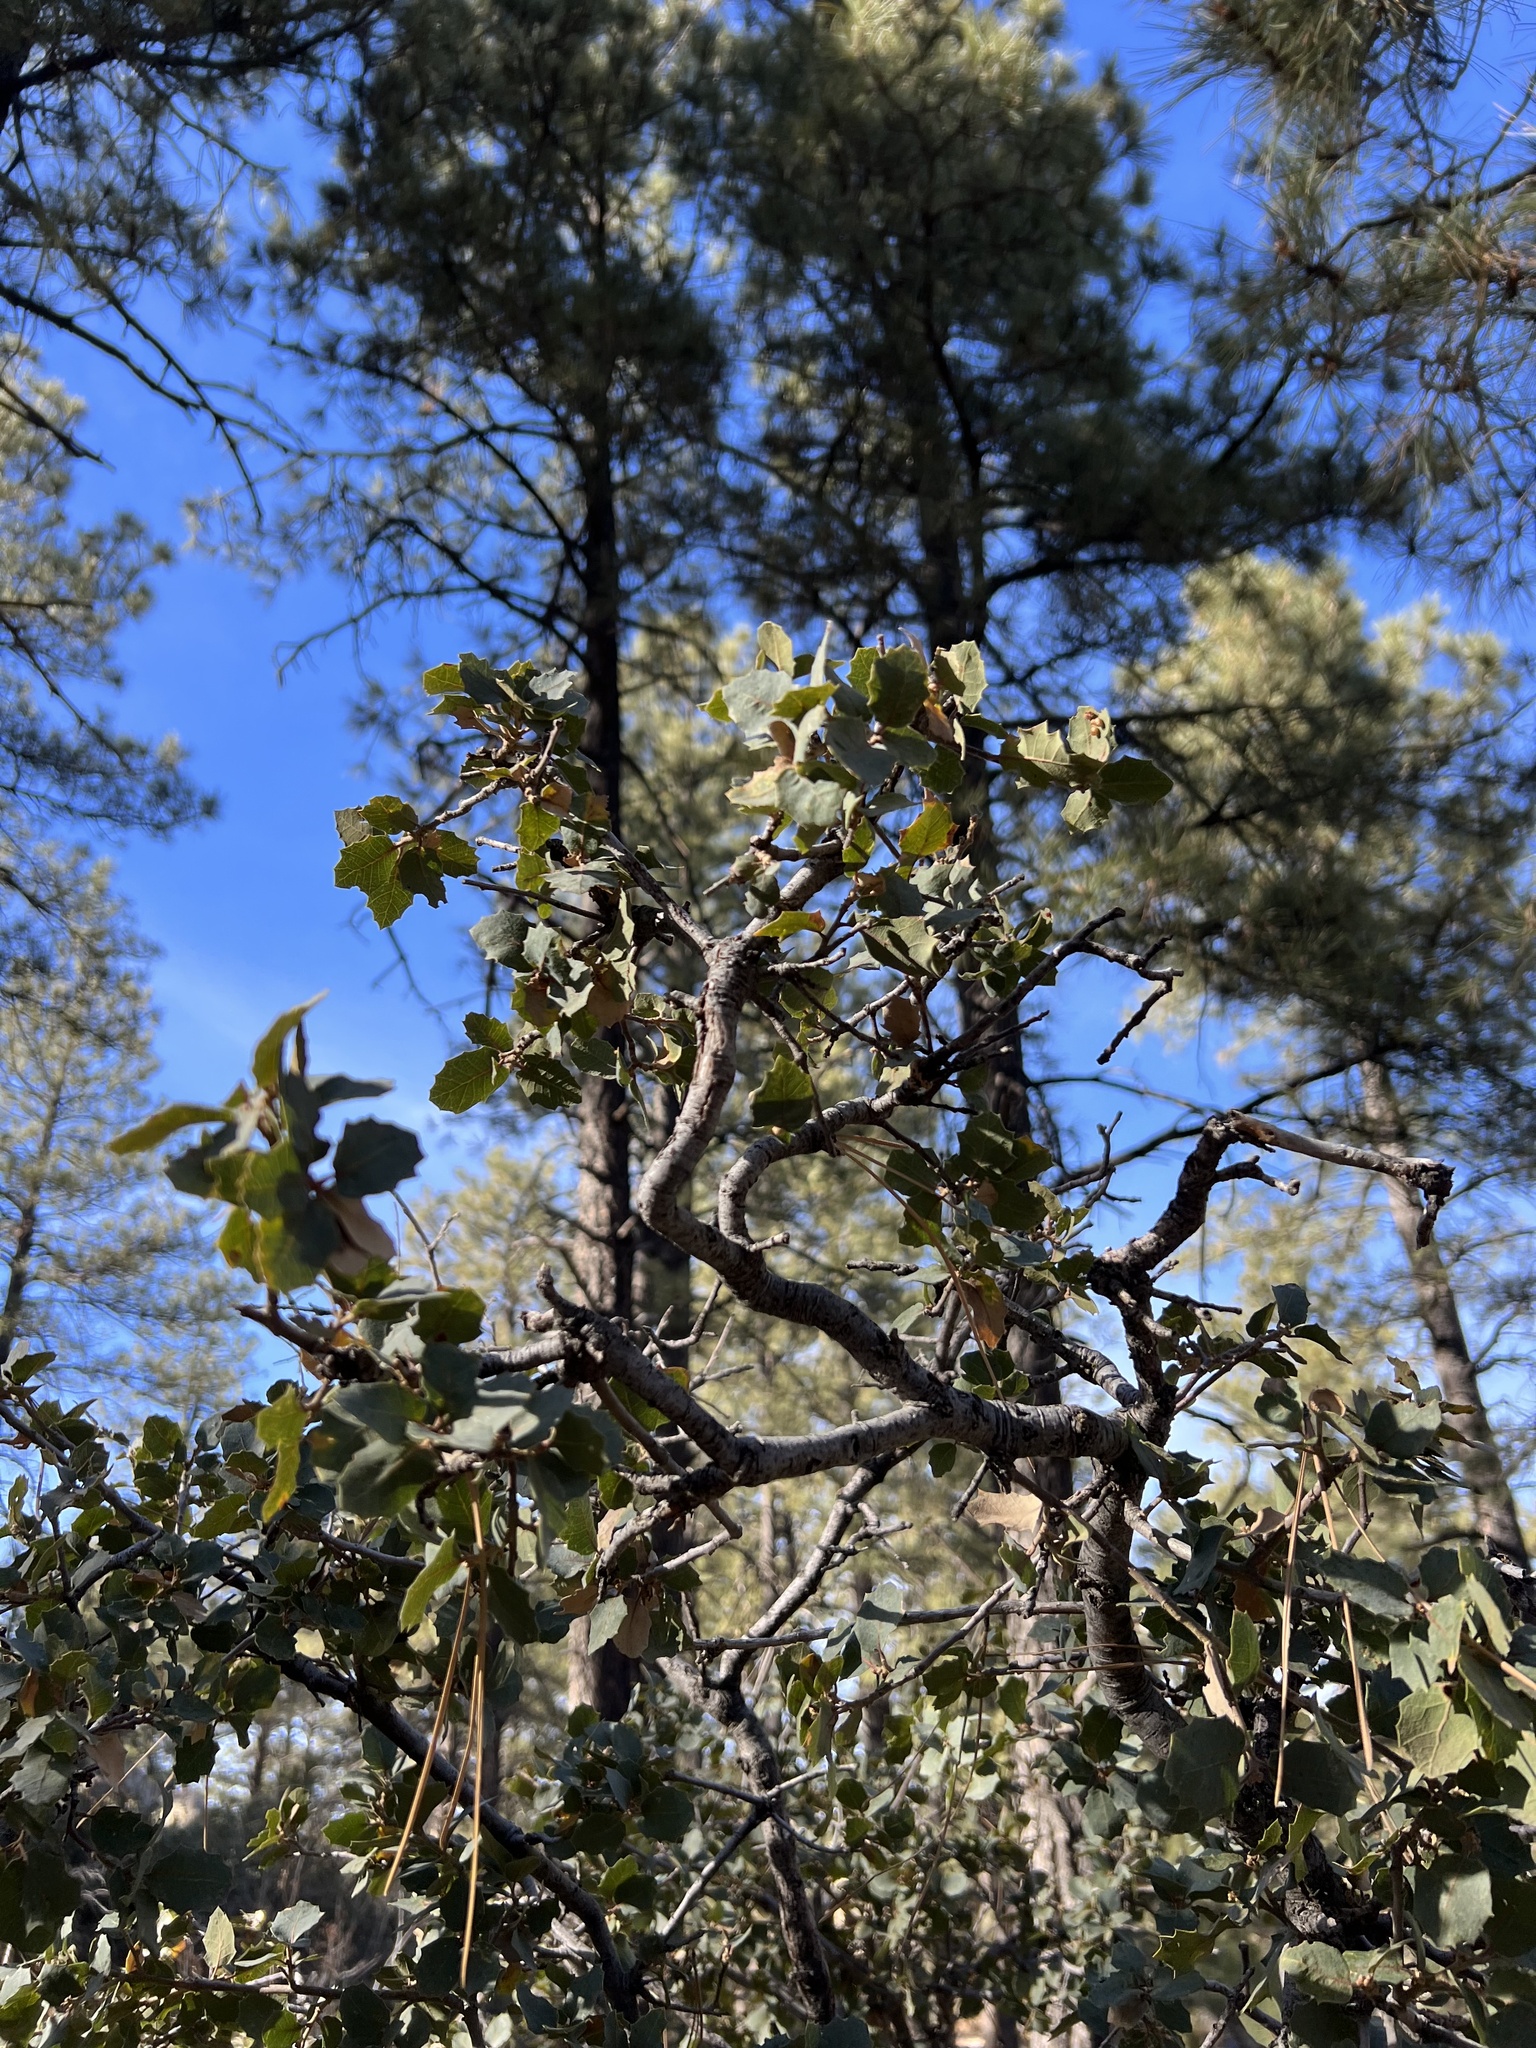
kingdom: Plantae
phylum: Tracheophyta
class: Magnoliopsida
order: Fagales
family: Fagaceae
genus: Quercus
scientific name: Quercus turbinella
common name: Sonoran scrub oak
